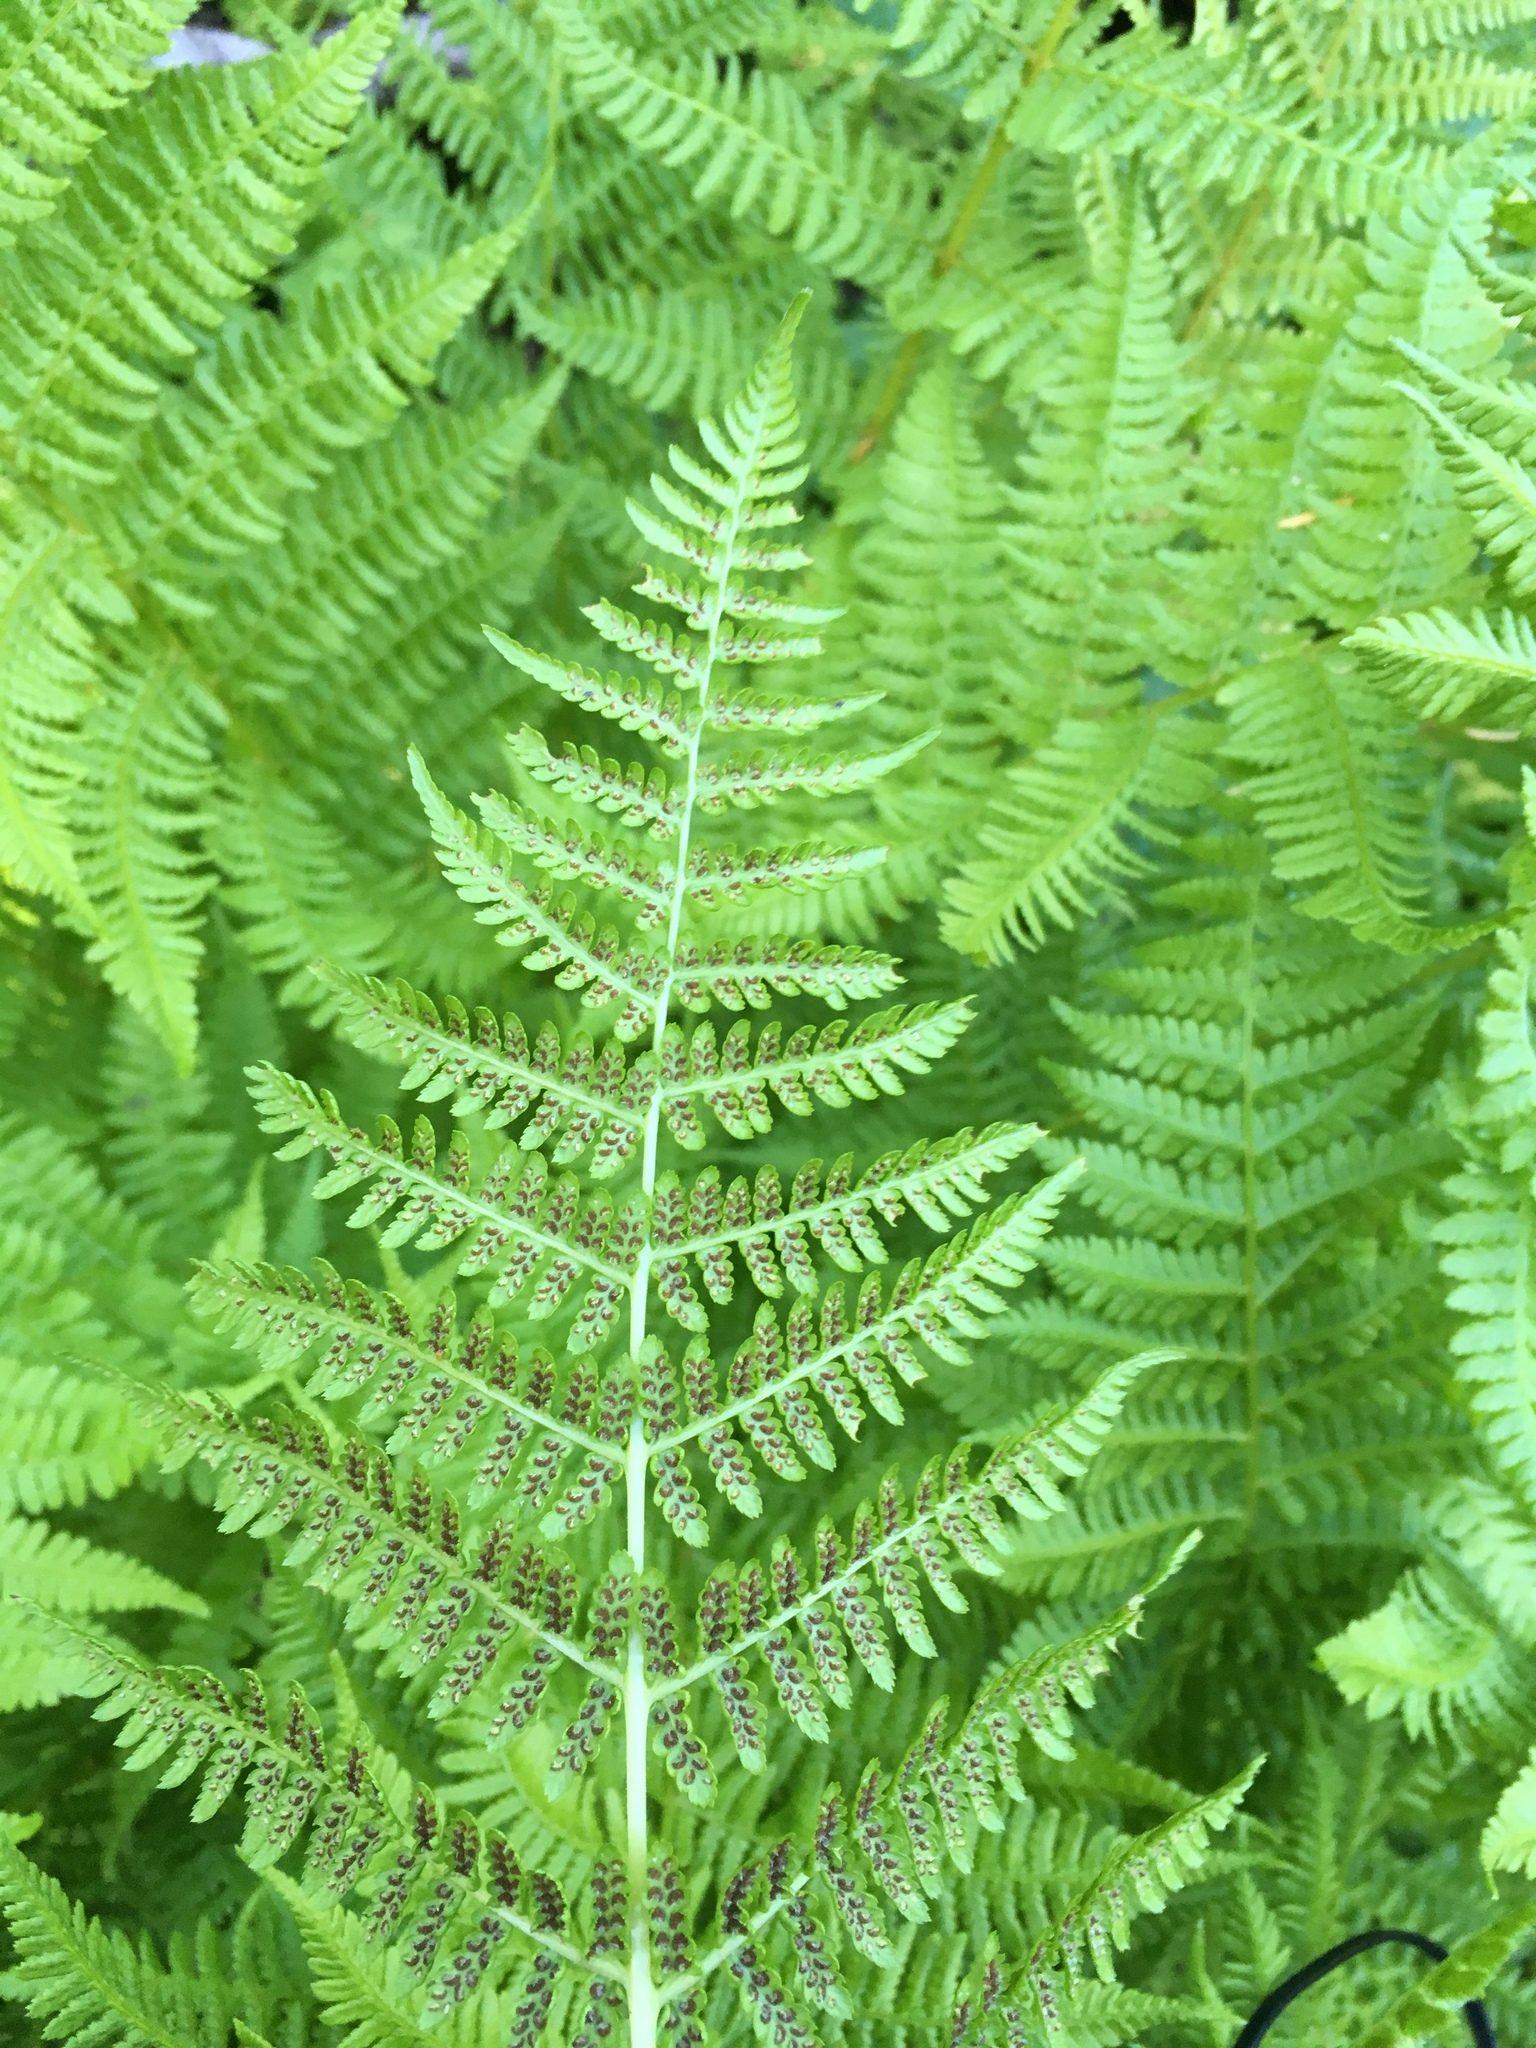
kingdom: Plantae
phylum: Tracheophyta
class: Polypodiopsida
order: Polypodiales
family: Athyriaceae
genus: Athyrium
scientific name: Athyrium cyclosorum
